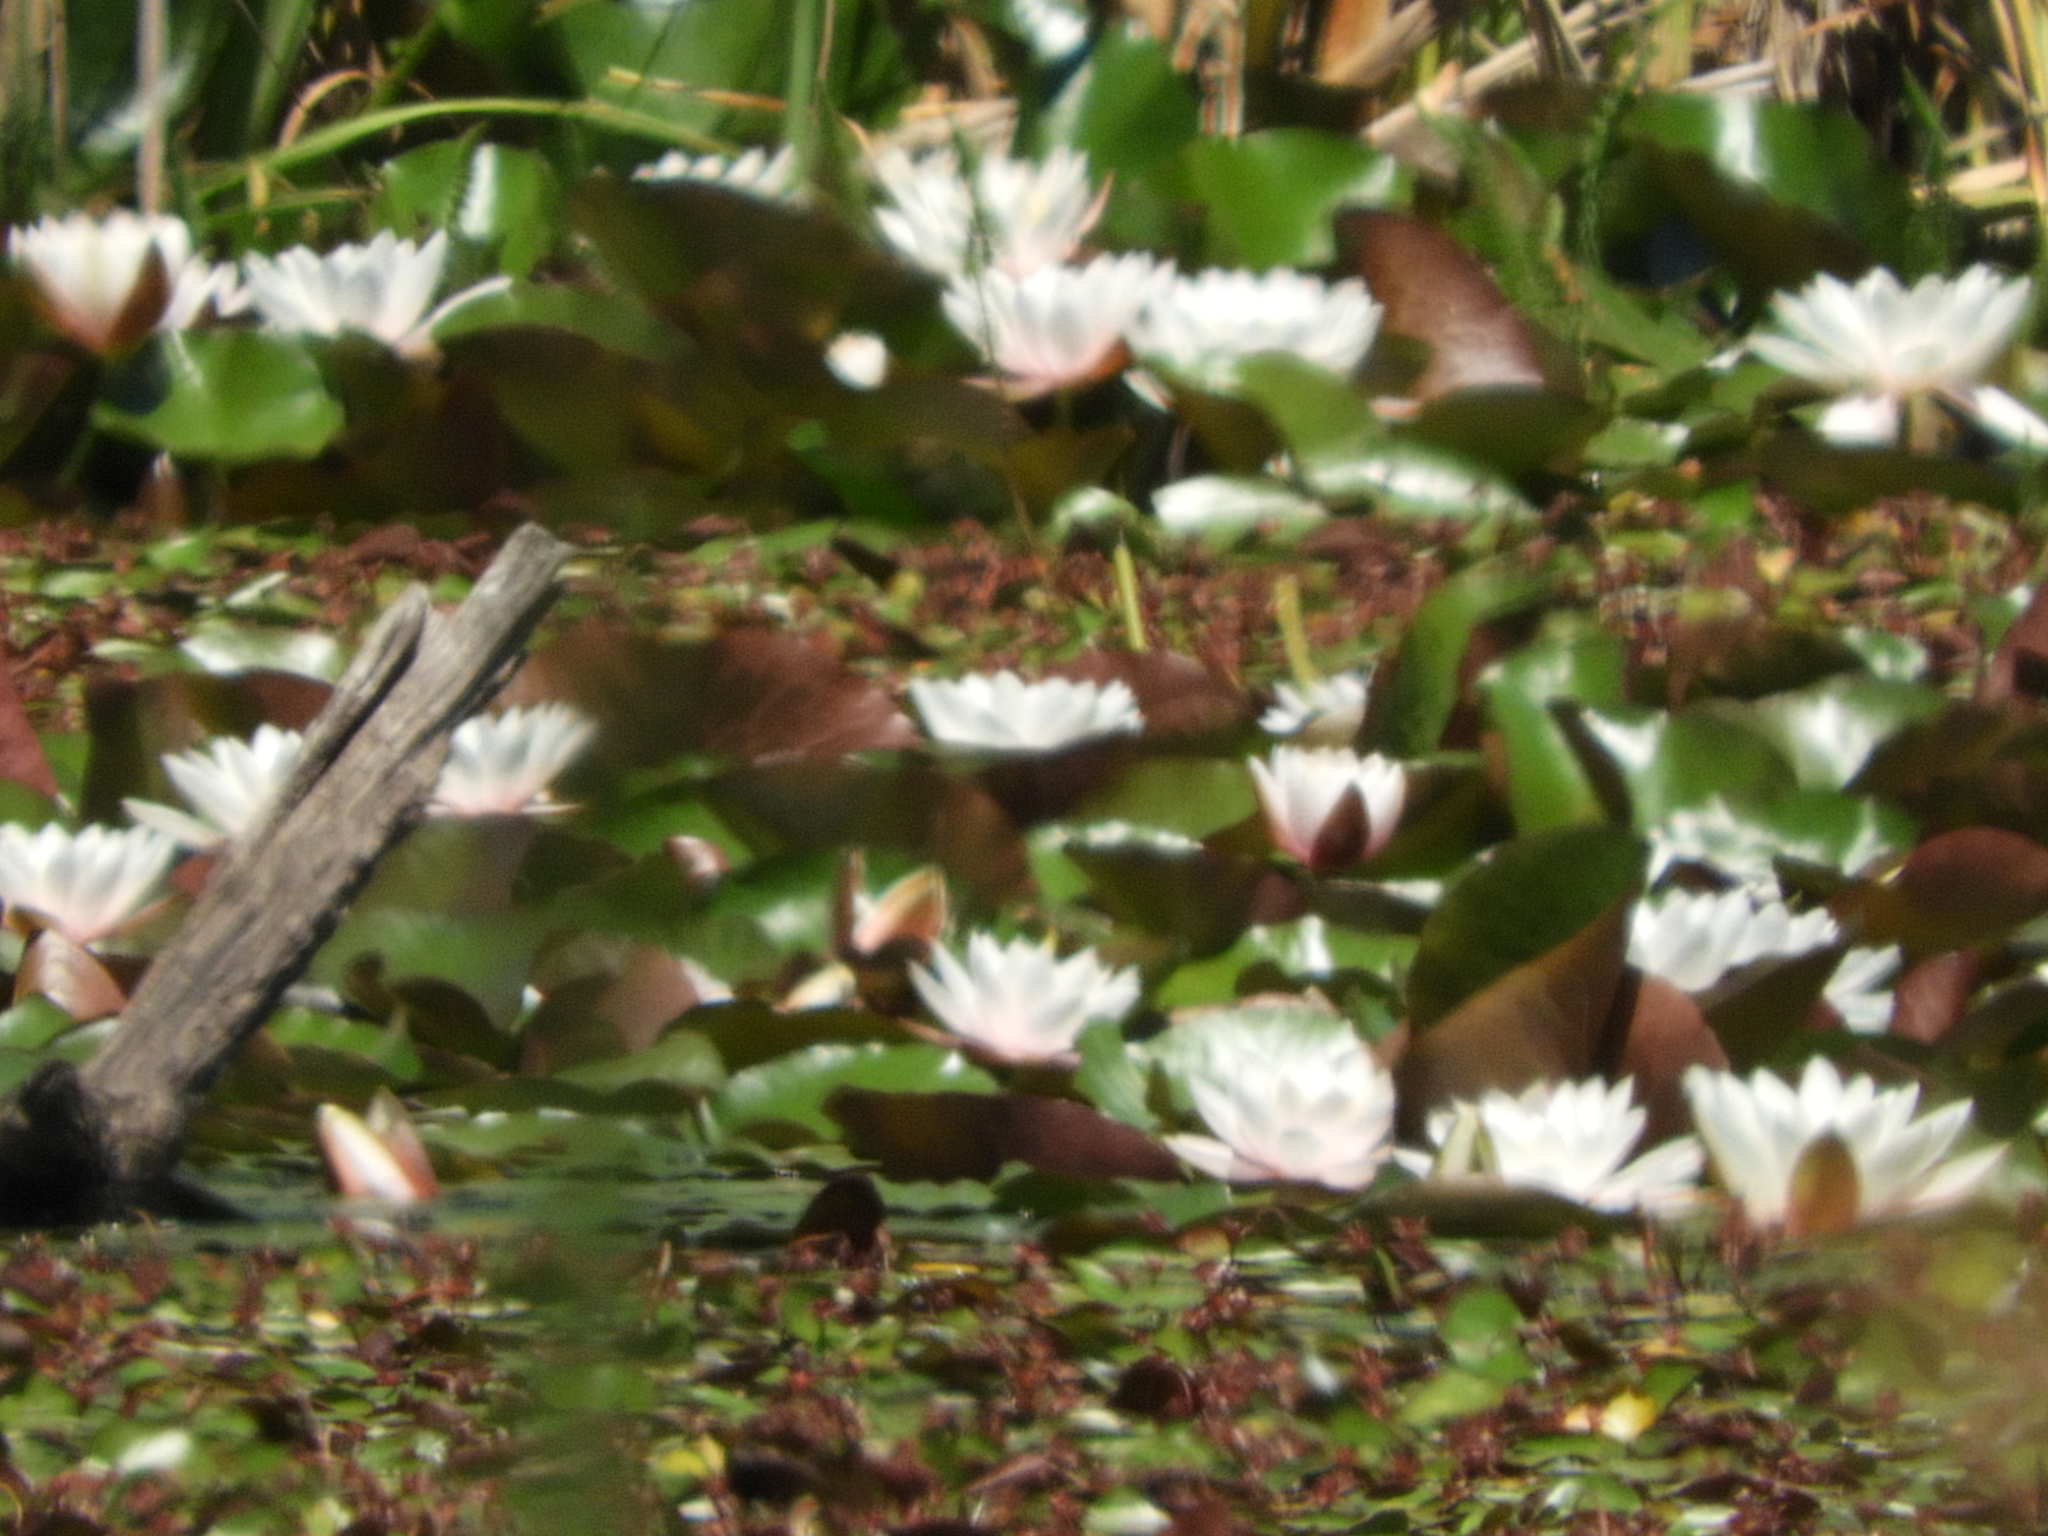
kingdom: Plantae
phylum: Tracheophyta
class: Magnoliopsida
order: Nymphaeales
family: Nymphaeaceae
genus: Nymphaea
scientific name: Nymphaea odorata
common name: Fragrant water-lily
